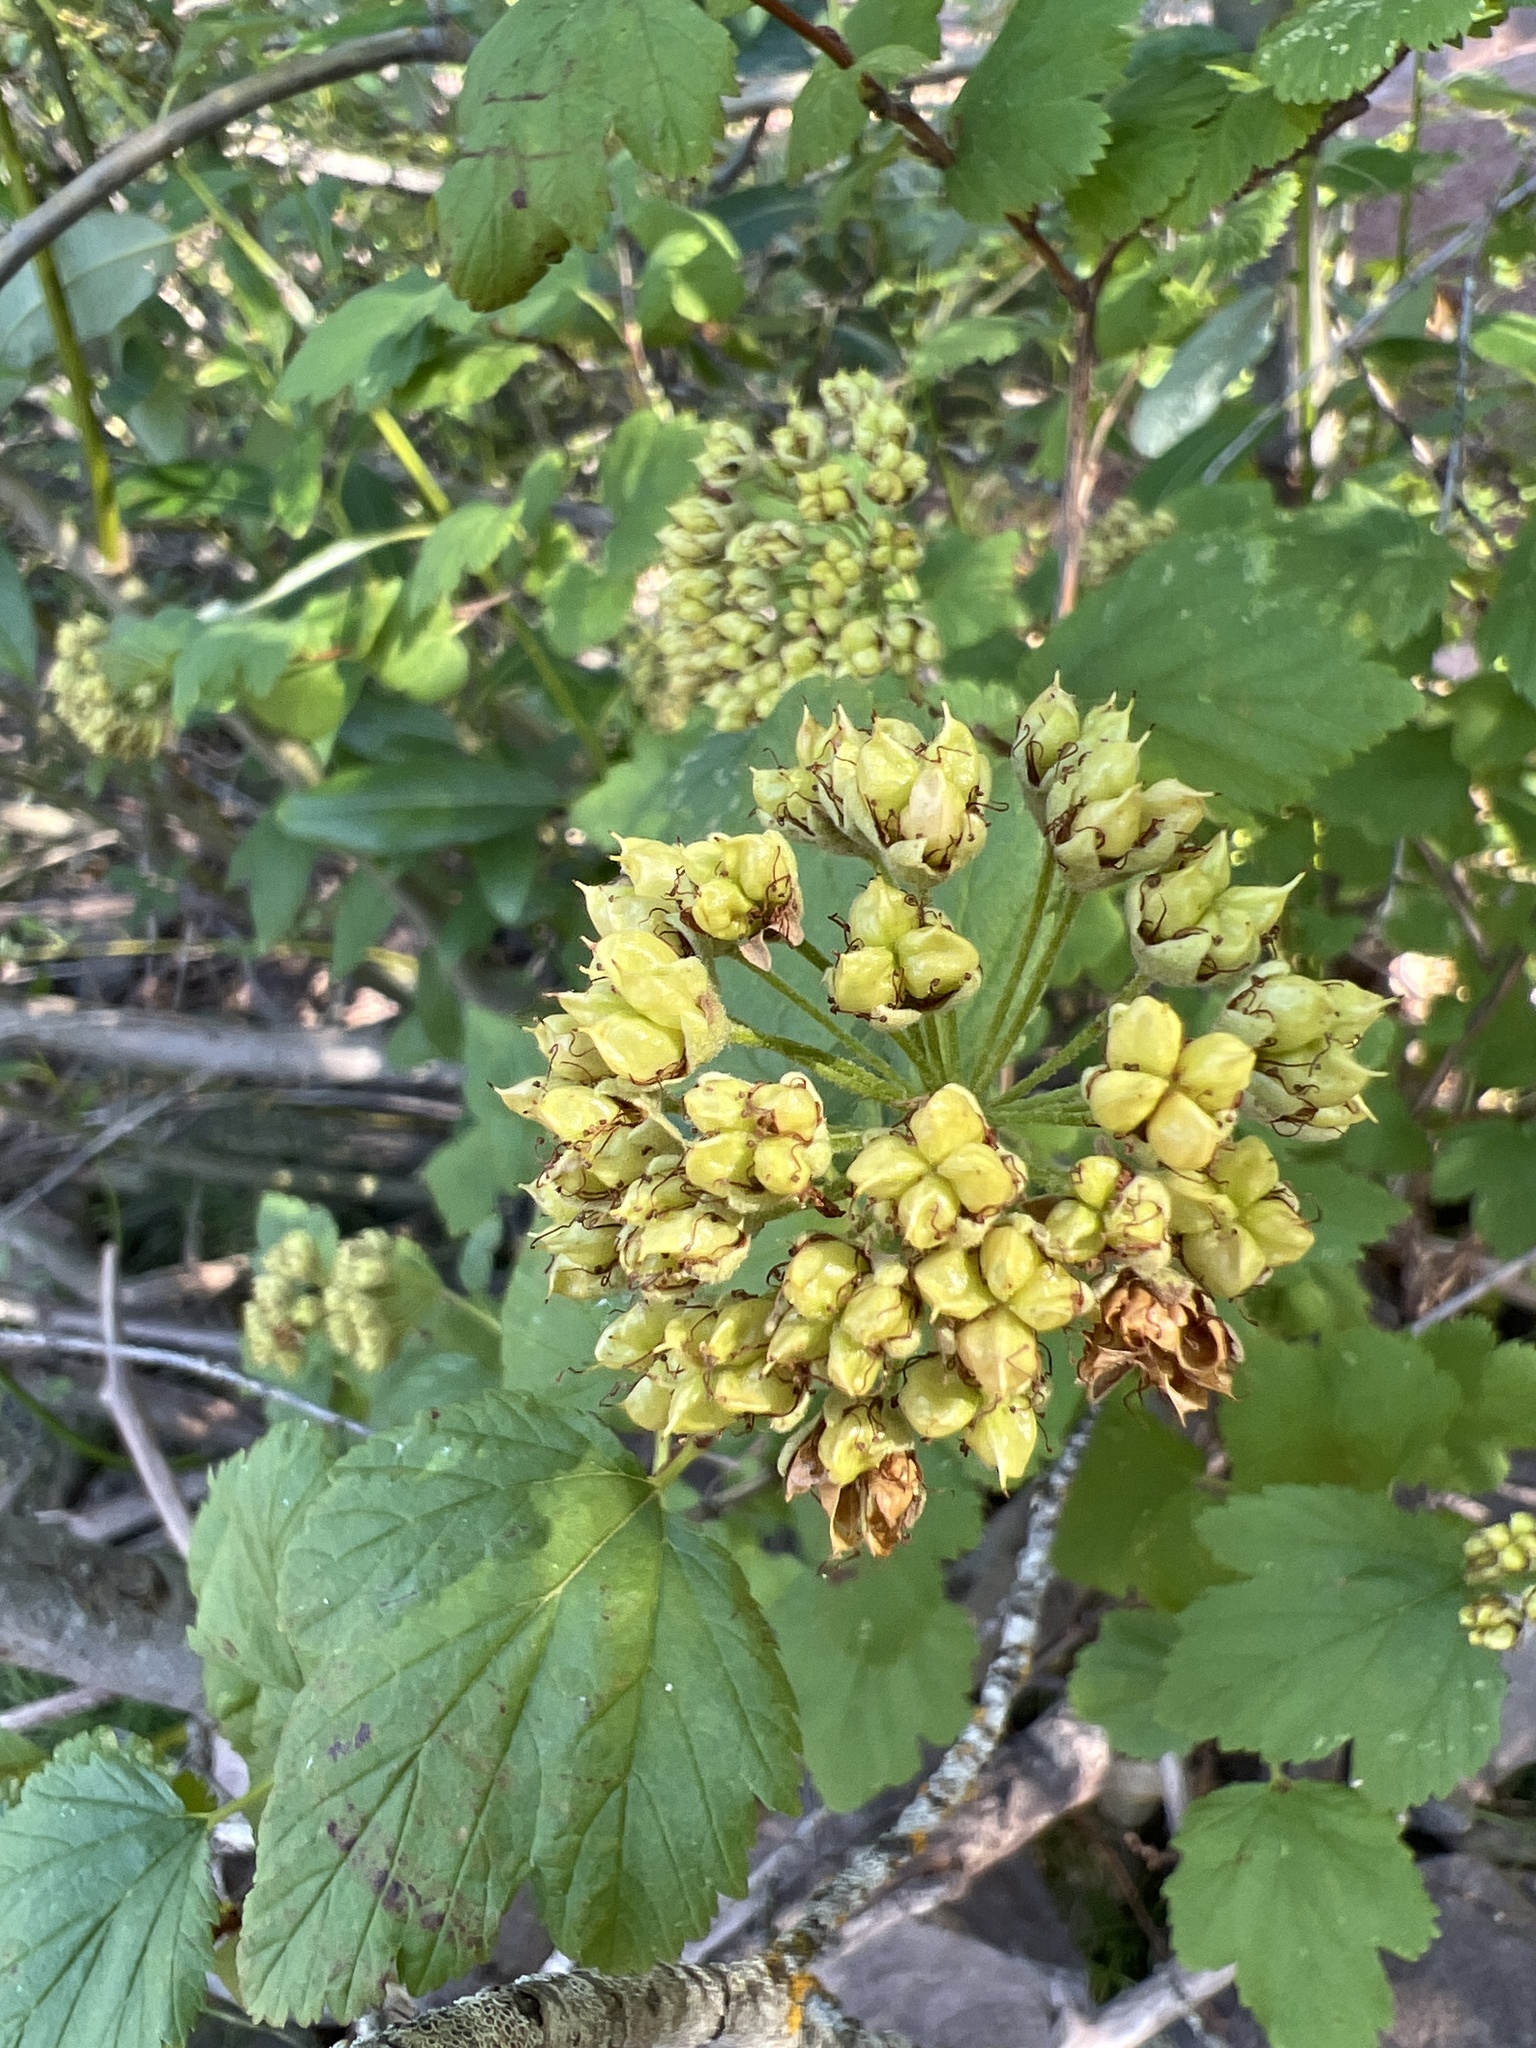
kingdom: Plantae
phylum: Tracheophyta
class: Magnoliopsida
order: Rosales
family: Rosaceae
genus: Physocarpus
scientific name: Physocarpus capitatus
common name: Pacific ninebark
